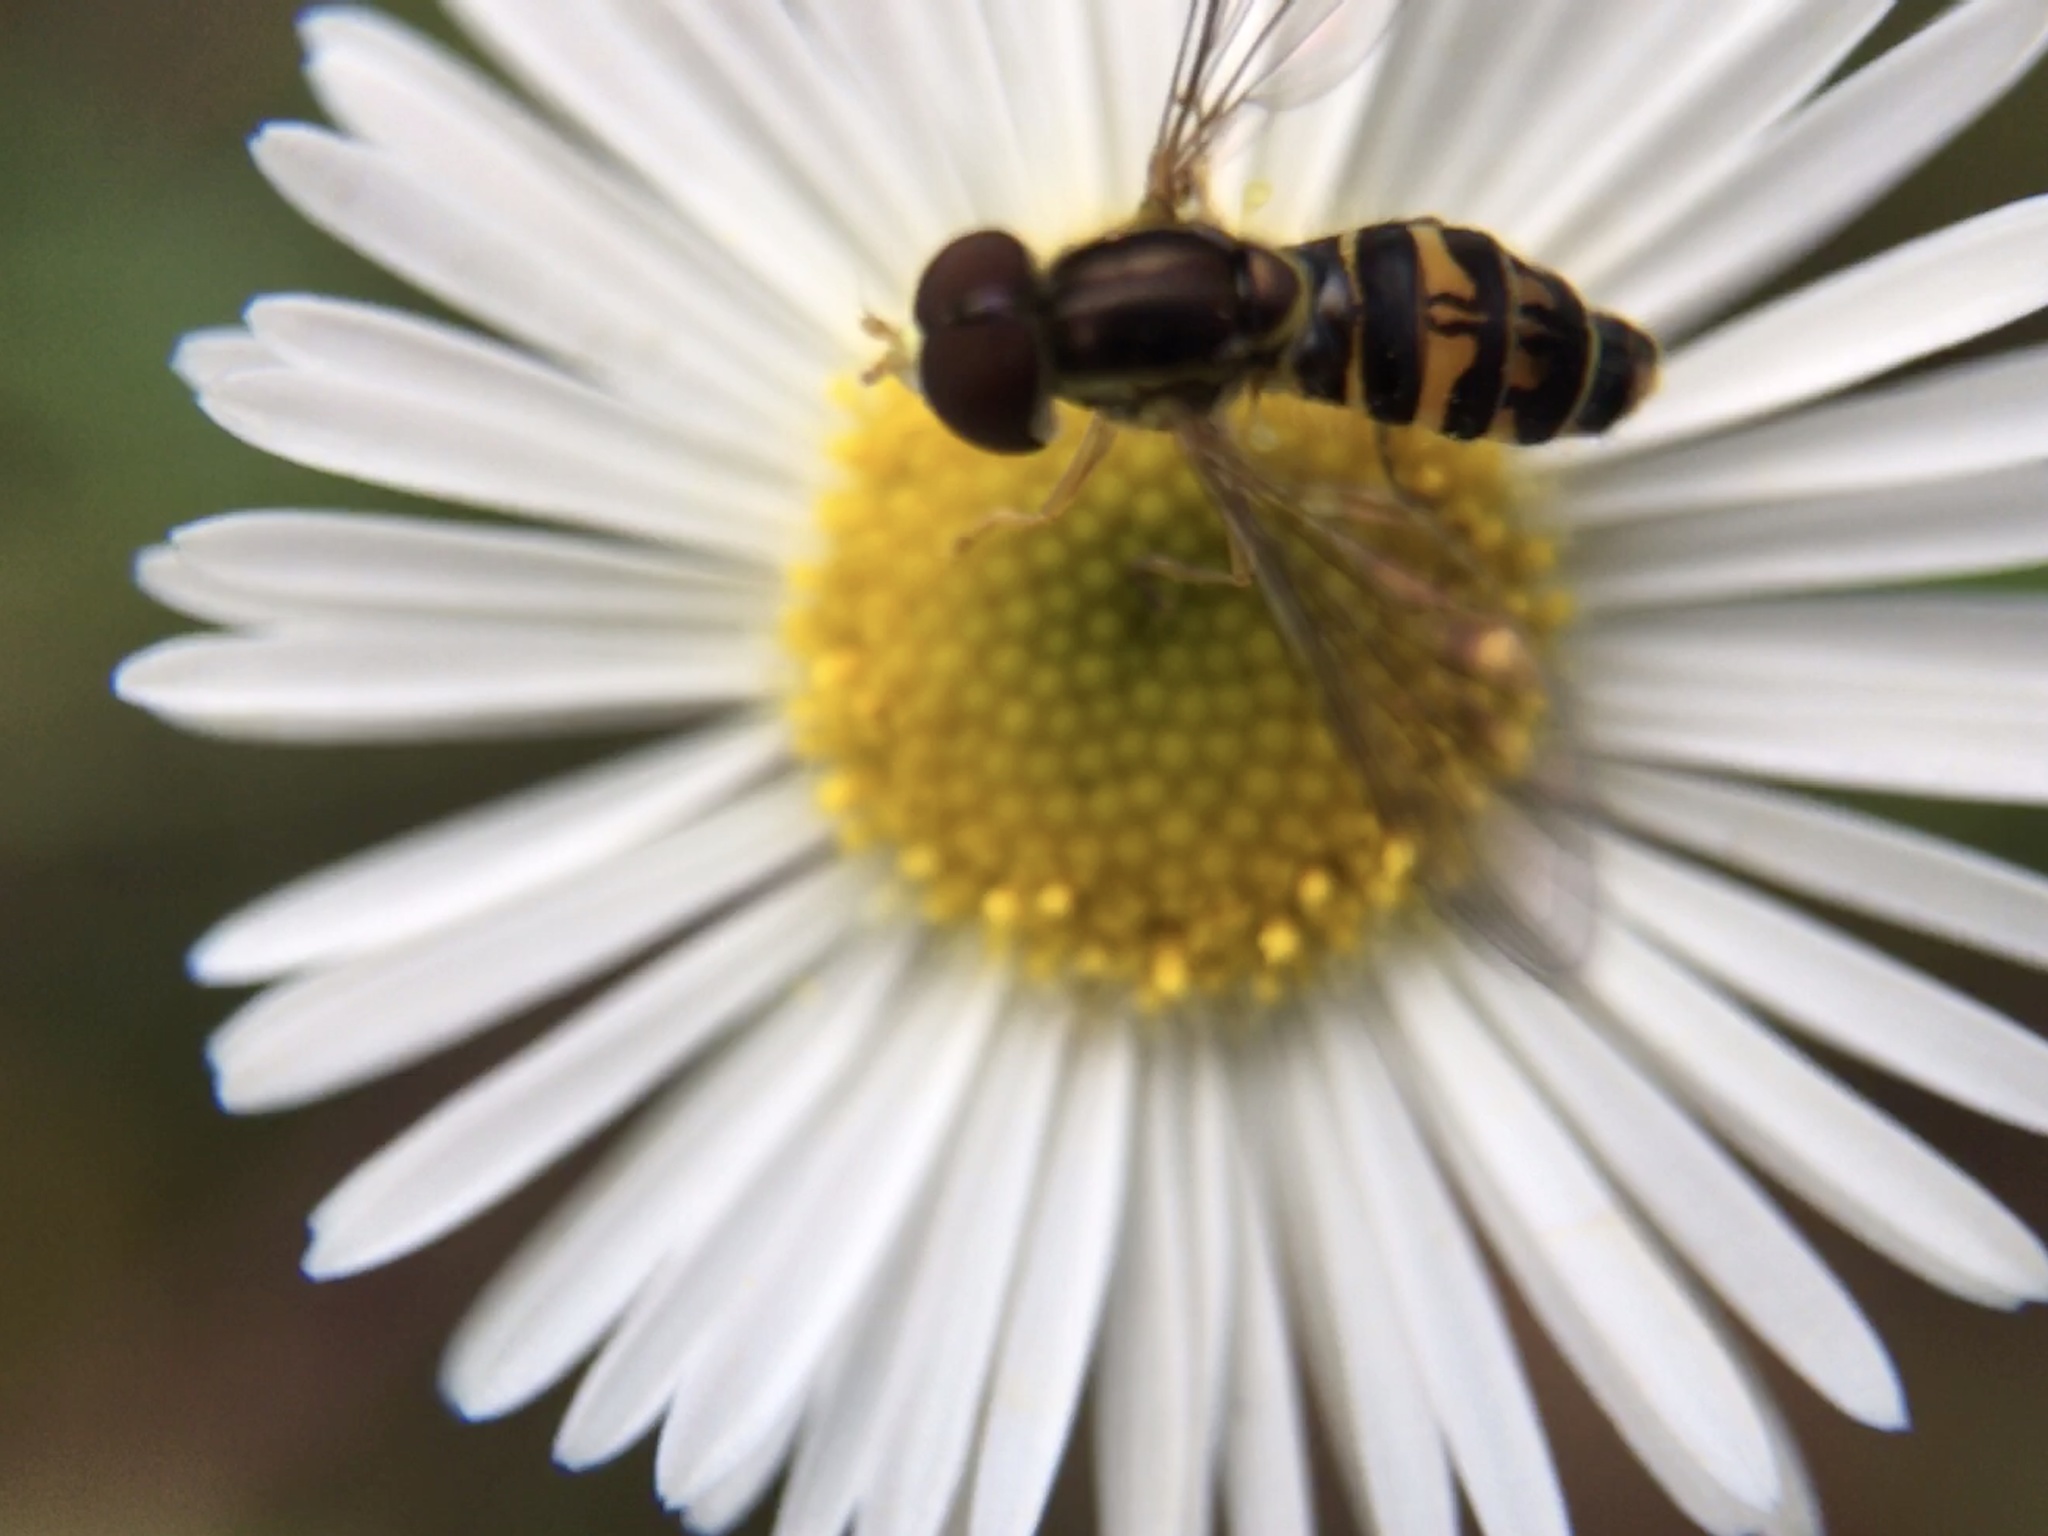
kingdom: Animalia
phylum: Arthropoda
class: Insecta
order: Diptera
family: Syrphidae
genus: Toxomerus
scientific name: Toxomerus occidentalis
